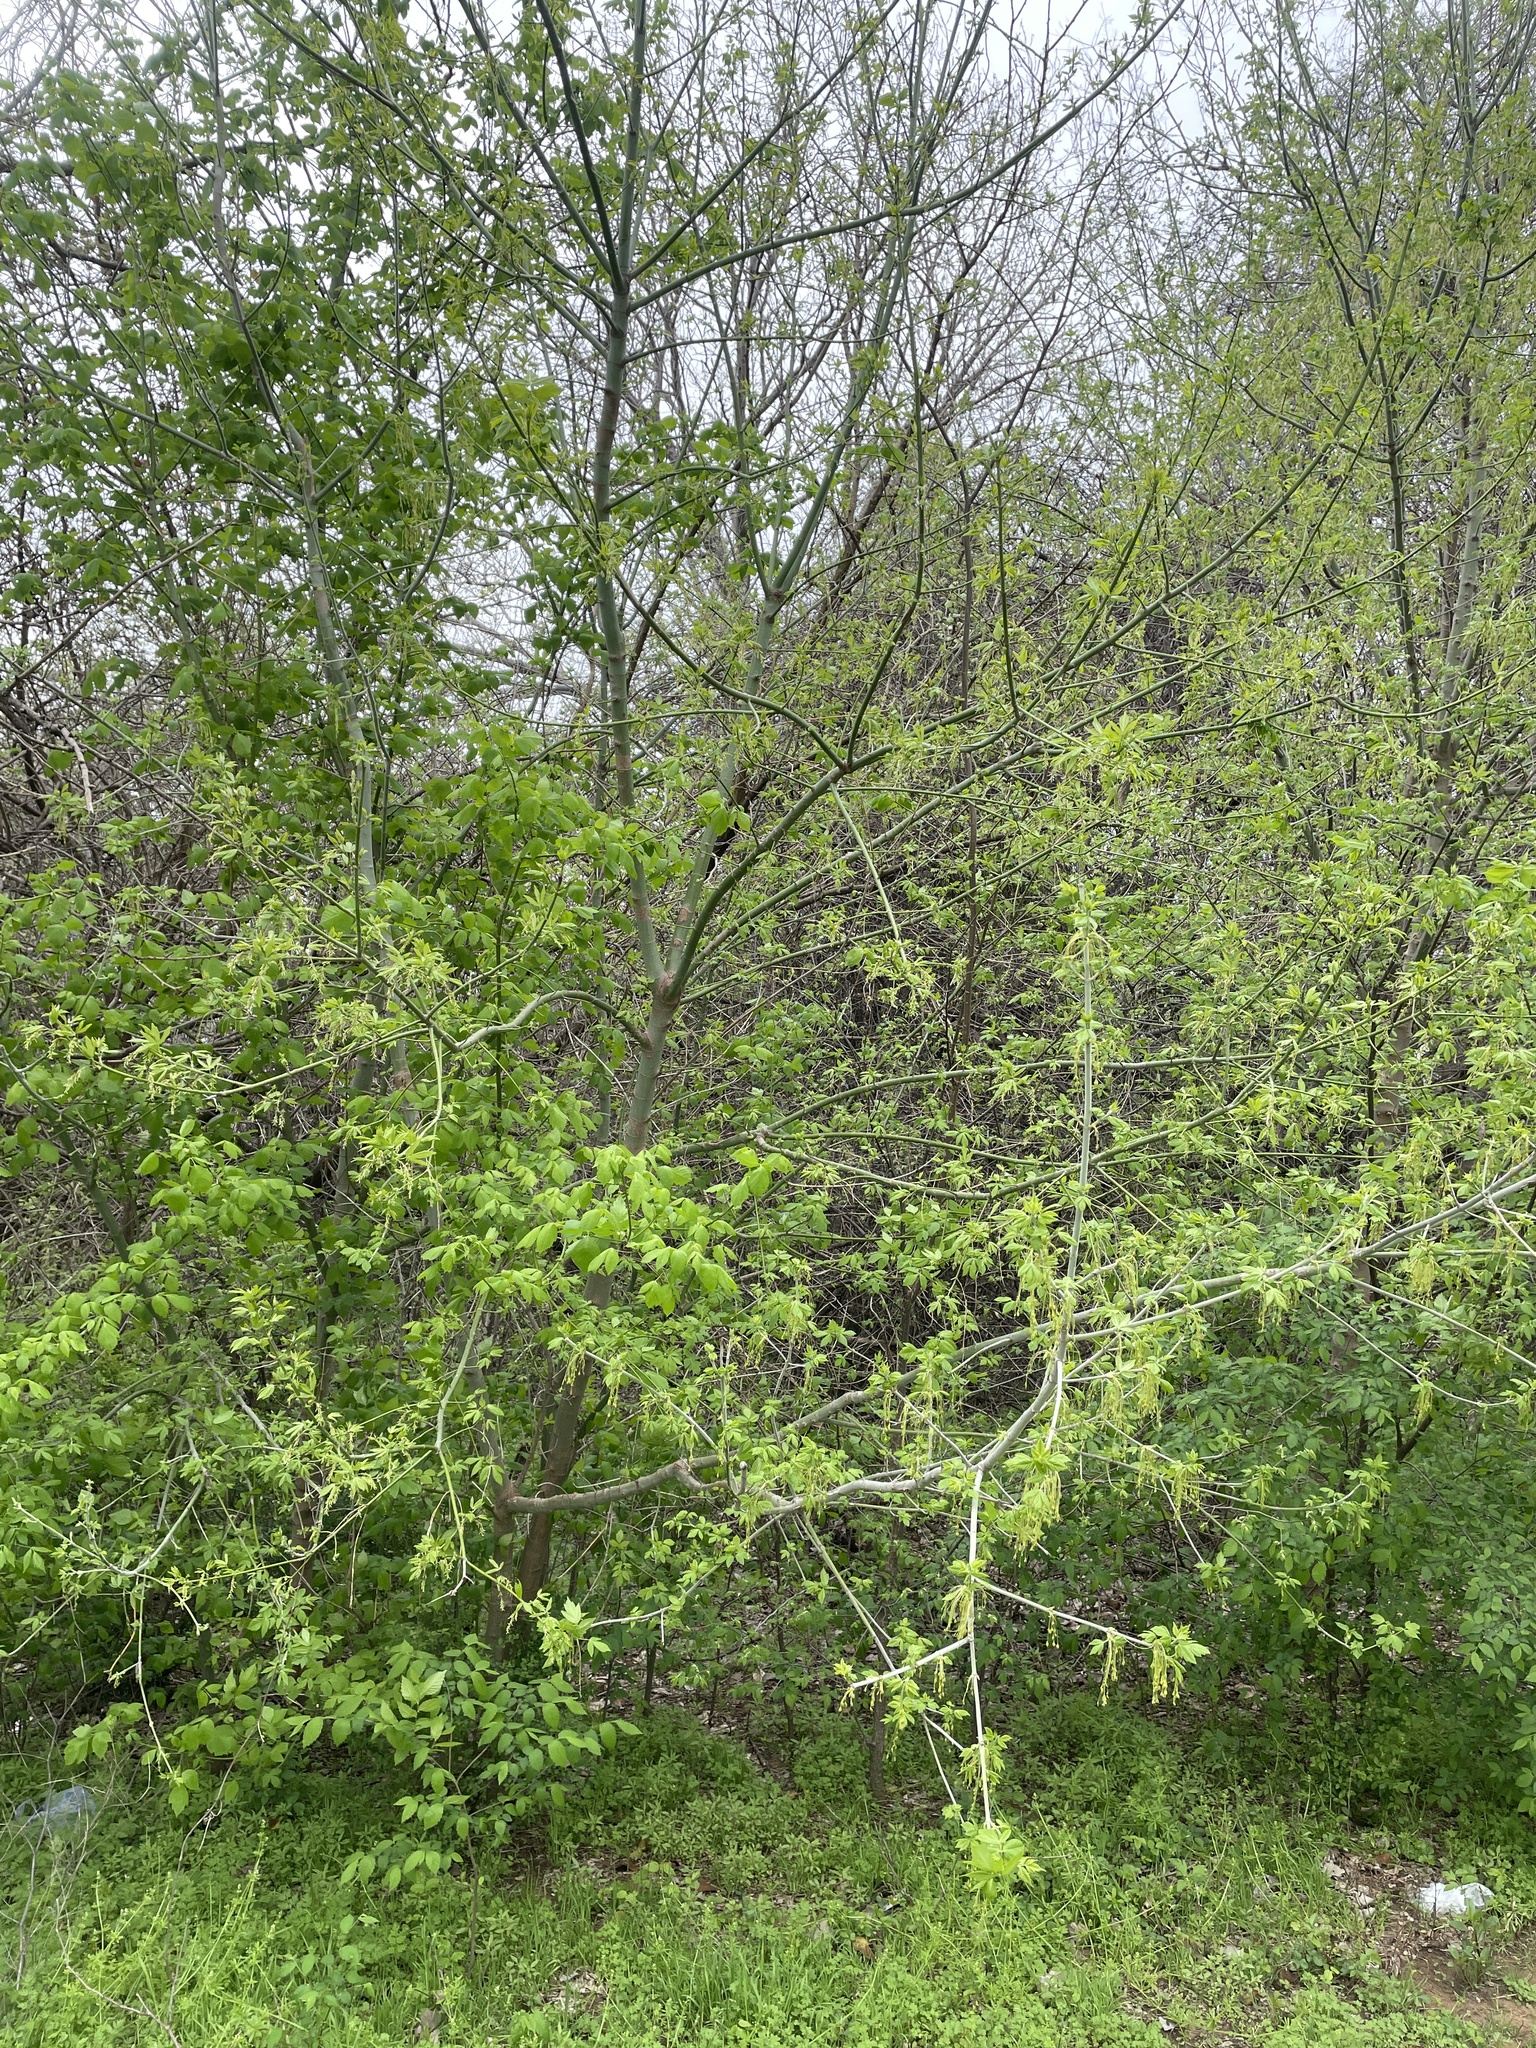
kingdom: Plantae
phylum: Tracheophyta
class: Magnoliopsida
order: Sapindales
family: Sapindaceae
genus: Acer
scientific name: Acer negundo
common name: Ashleaf maple
